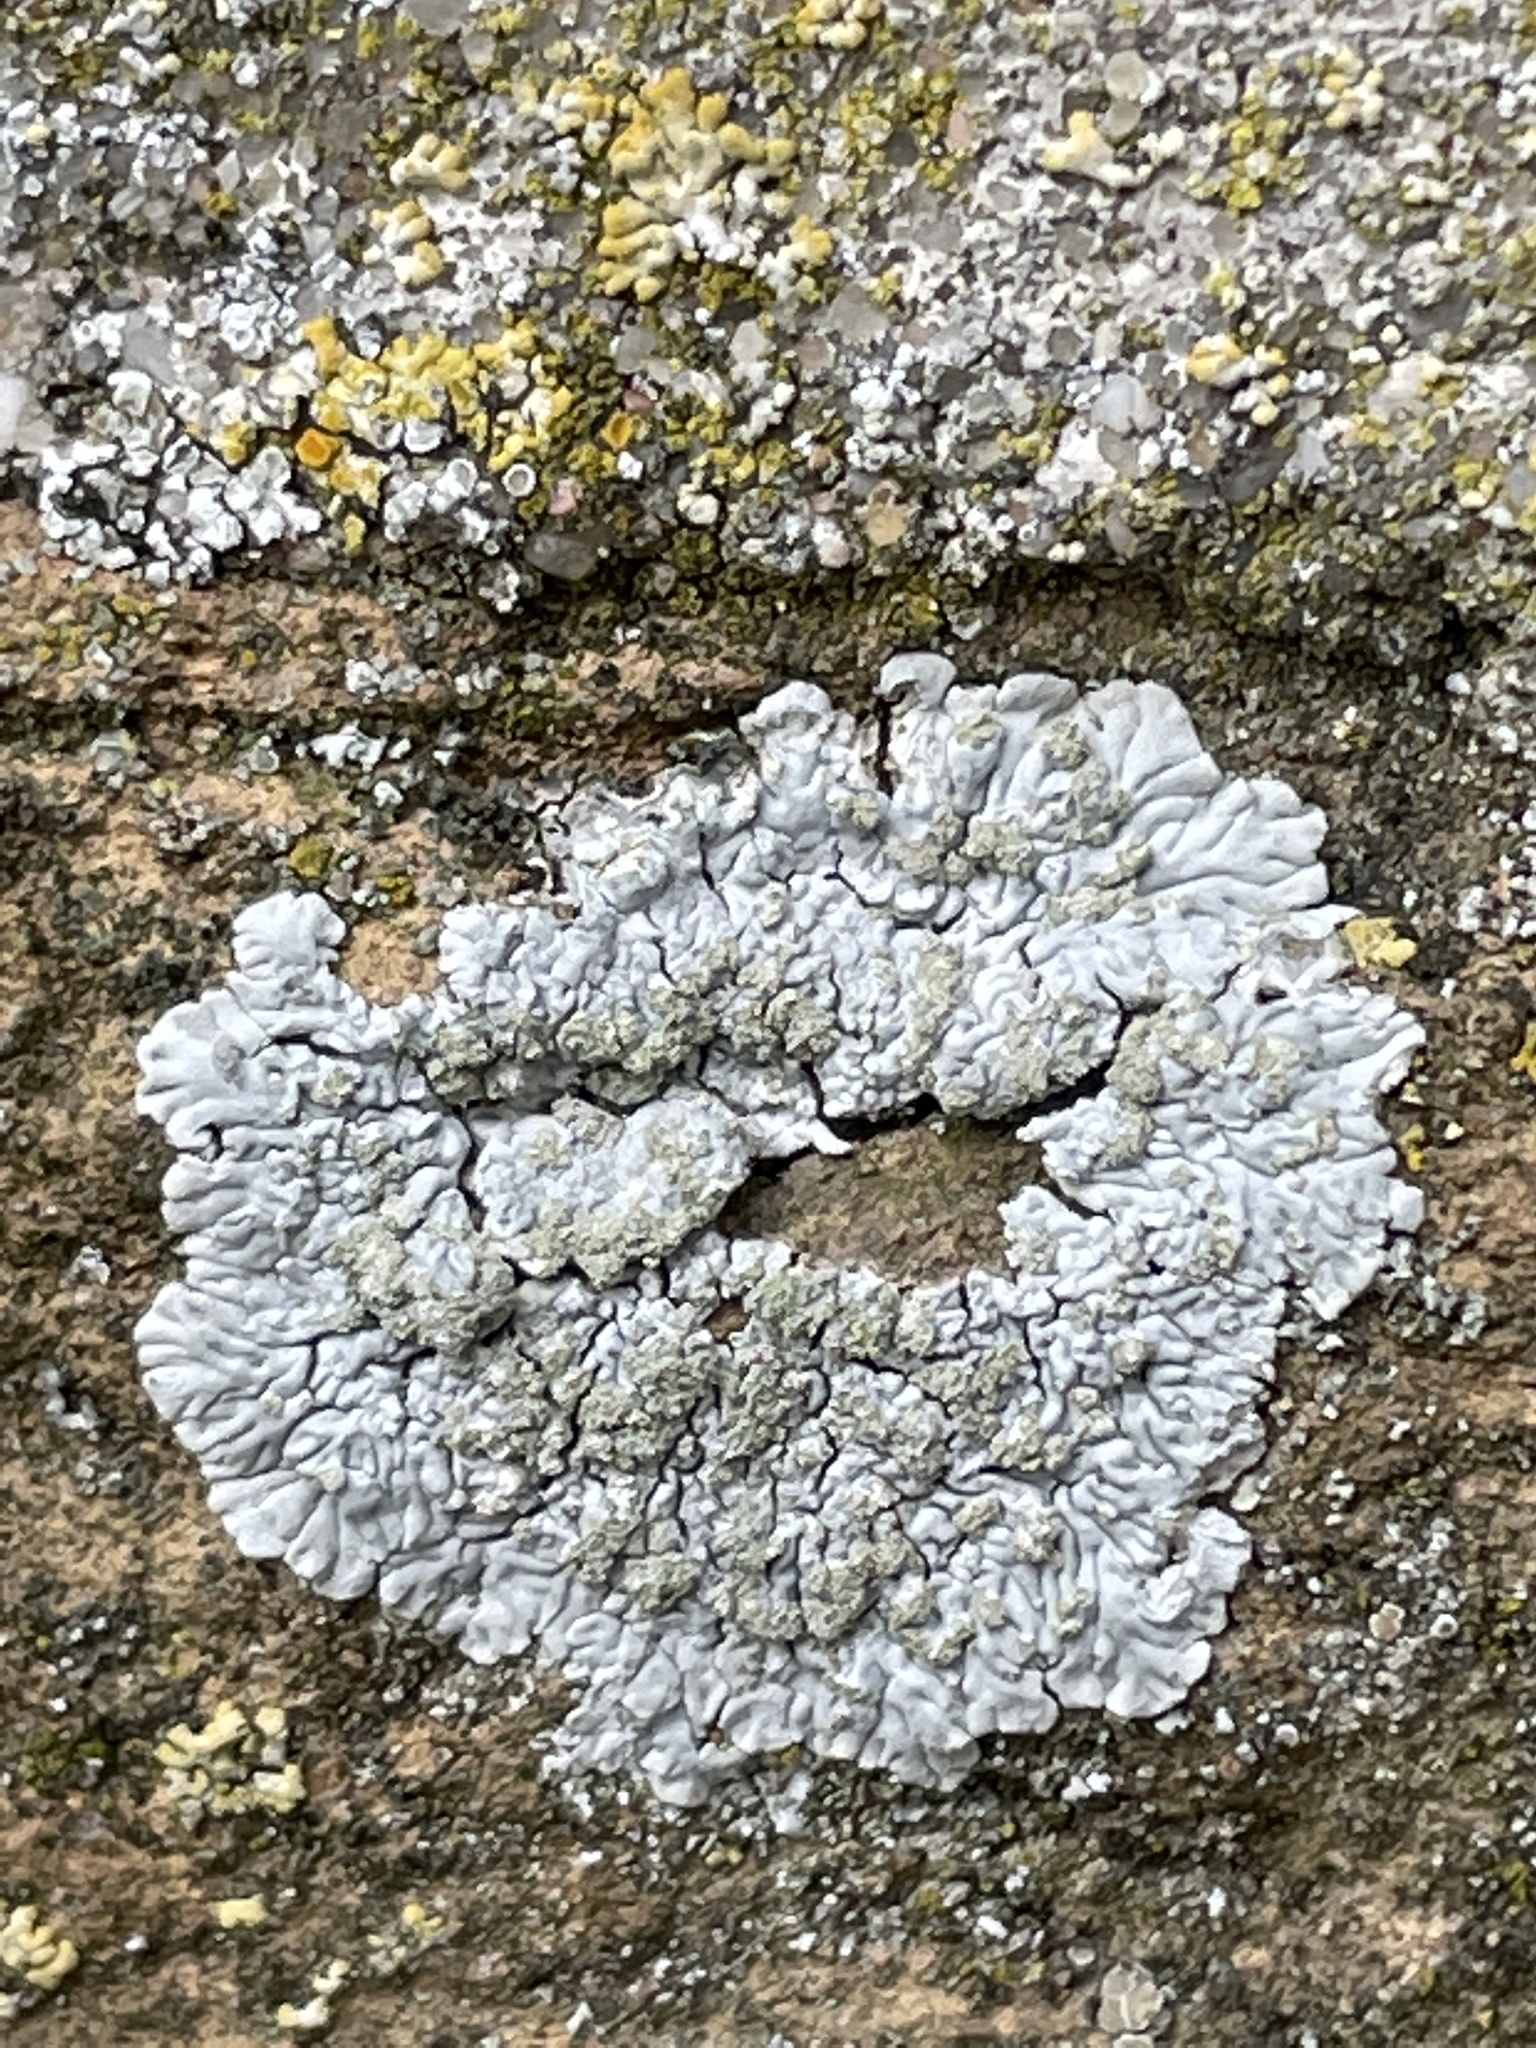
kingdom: Fungi
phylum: Ascomycota
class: Lecanoromycetes
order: Caliciales
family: Caliciaceae
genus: Diploicia
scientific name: Diploicia canescens
